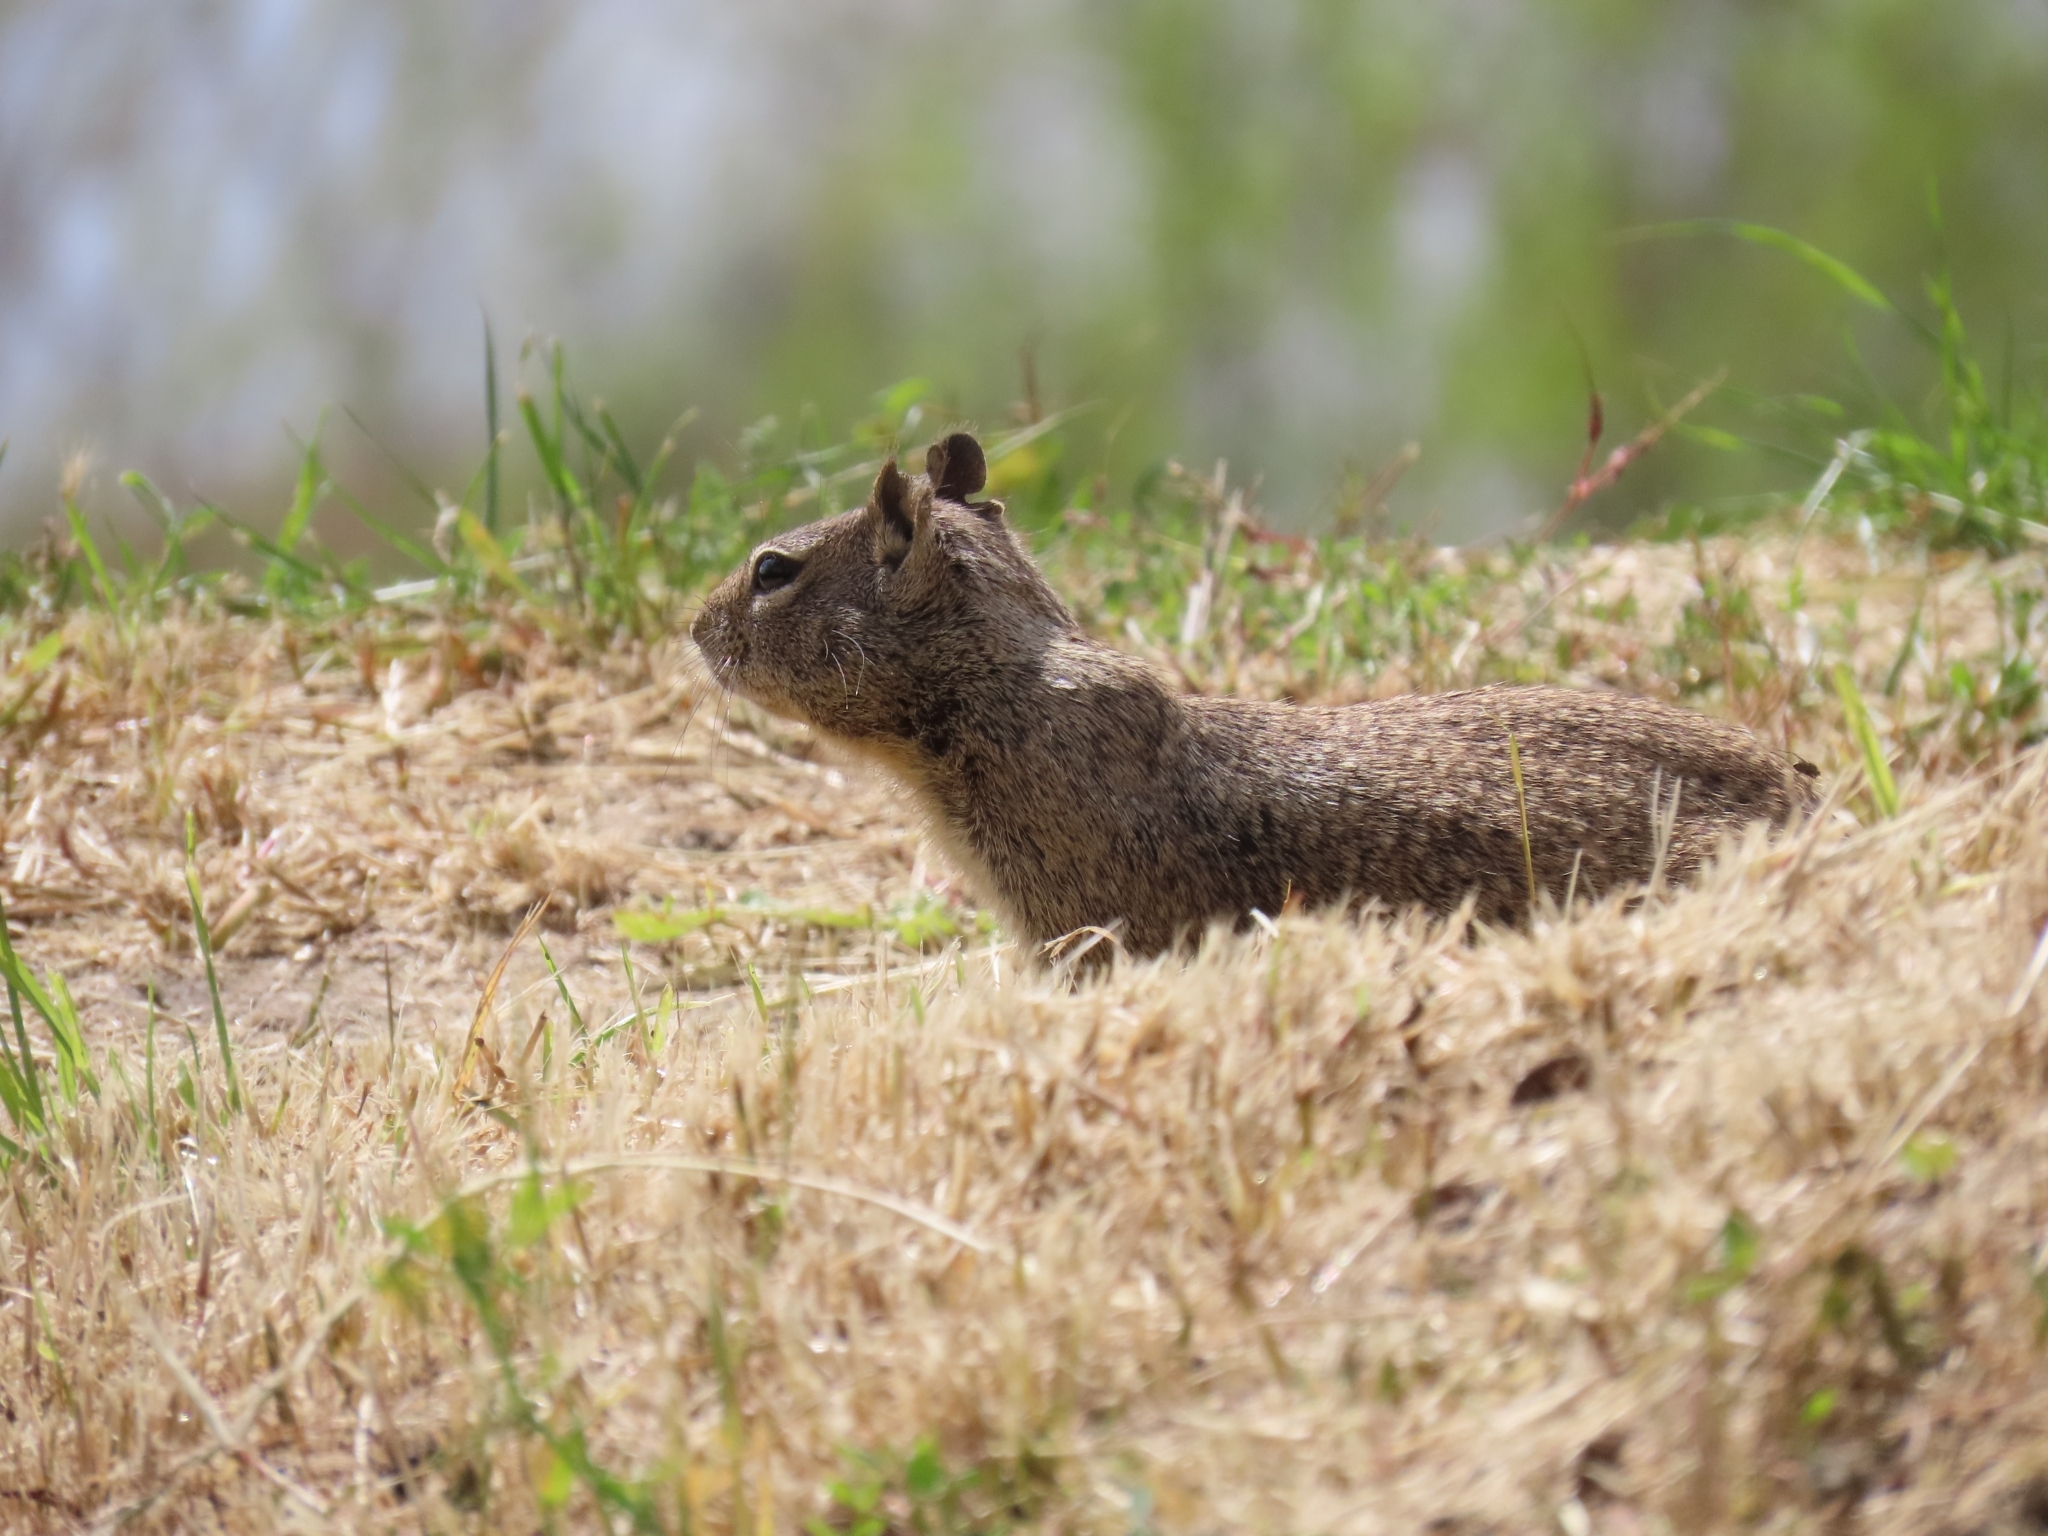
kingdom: Animalia
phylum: Chordata
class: Mammalia
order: Rodentia
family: Sciuridae
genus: Otospermophilus
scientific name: Otospermophilus beecheyi
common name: California ground squirrel
